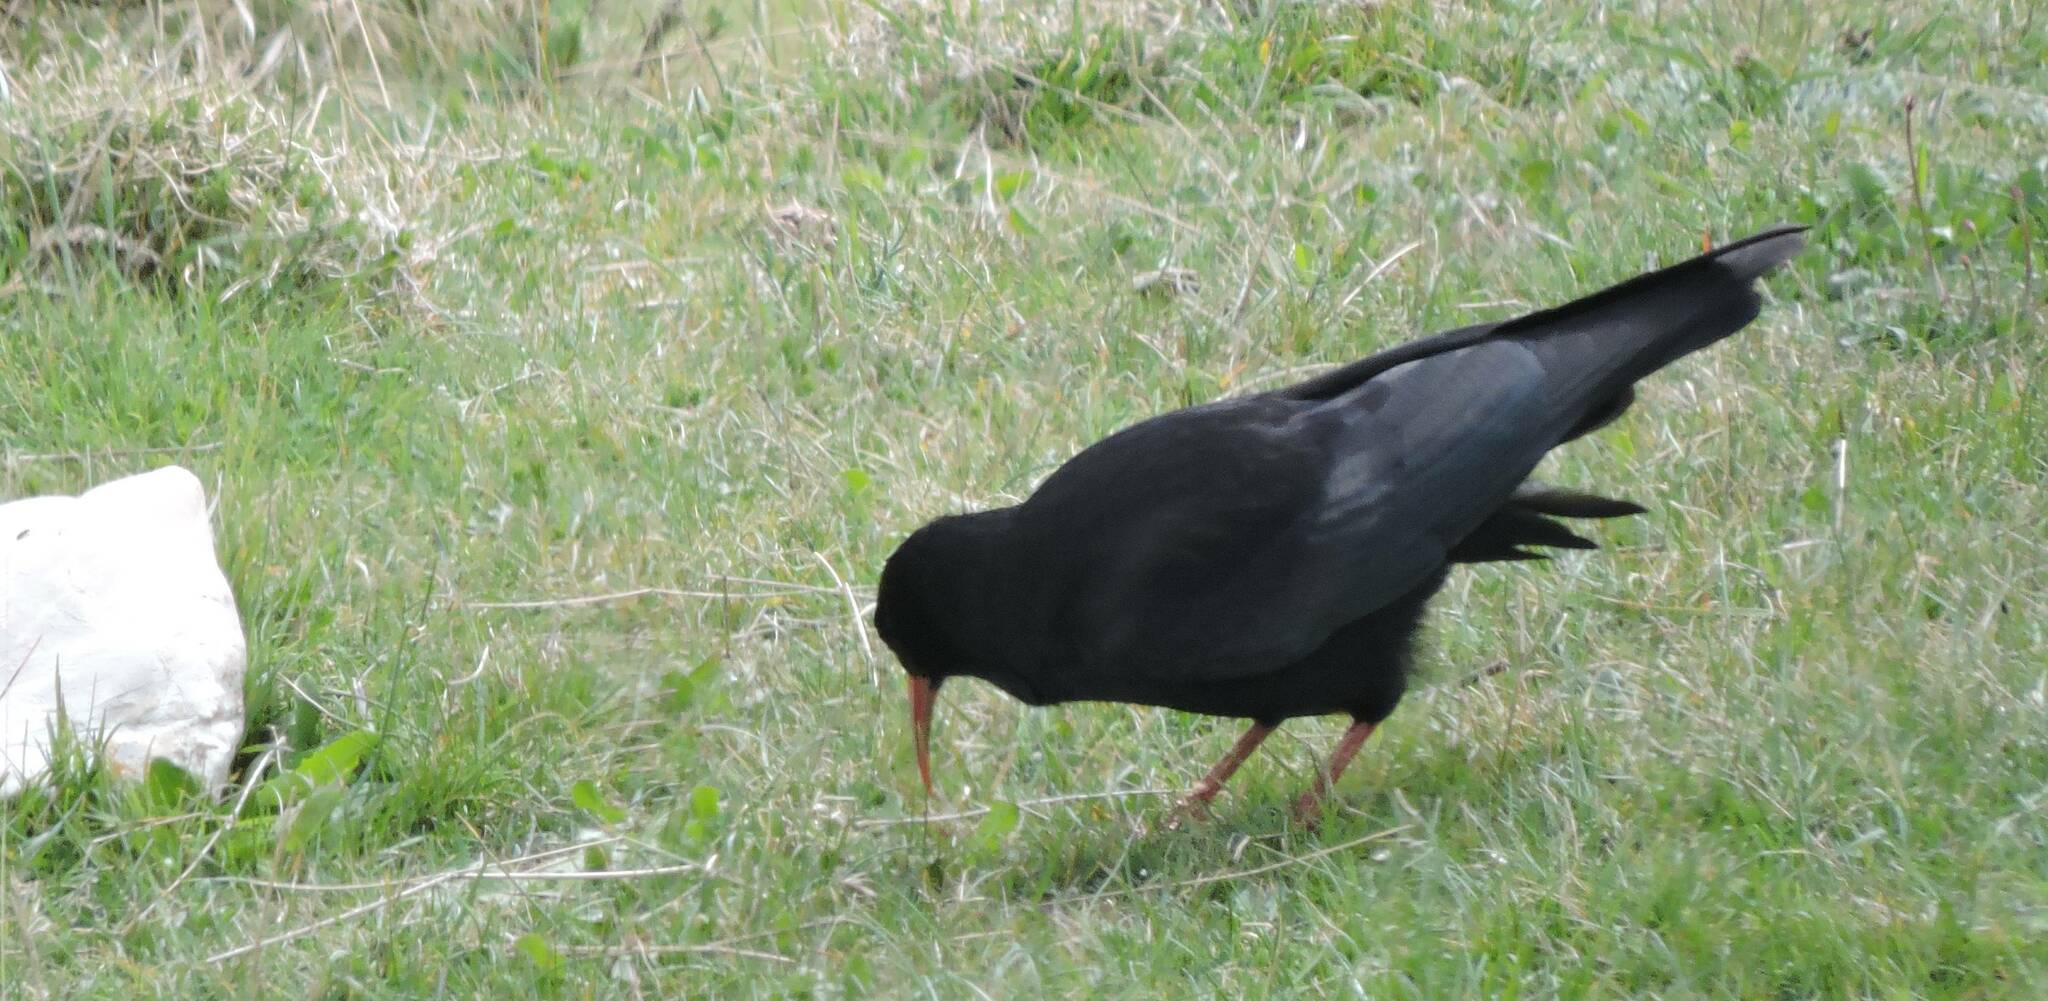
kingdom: Animalia
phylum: Chordata
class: Aves
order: Passeriformes
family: Corvidae
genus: Pyrrhocorax
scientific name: Pyrrhocorax pyrrhocorax
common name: Red-billed chough
